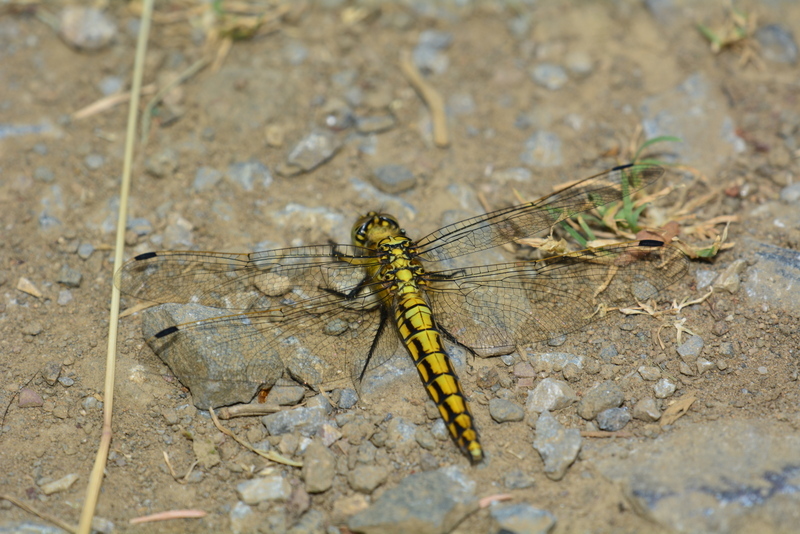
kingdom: Animalia
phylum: Arthropoda
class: Insecta
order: Odonata
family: Libellulidae
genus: Orthetrum
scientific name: Orthetrum cancellatum
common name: Black-tailed skimmer
